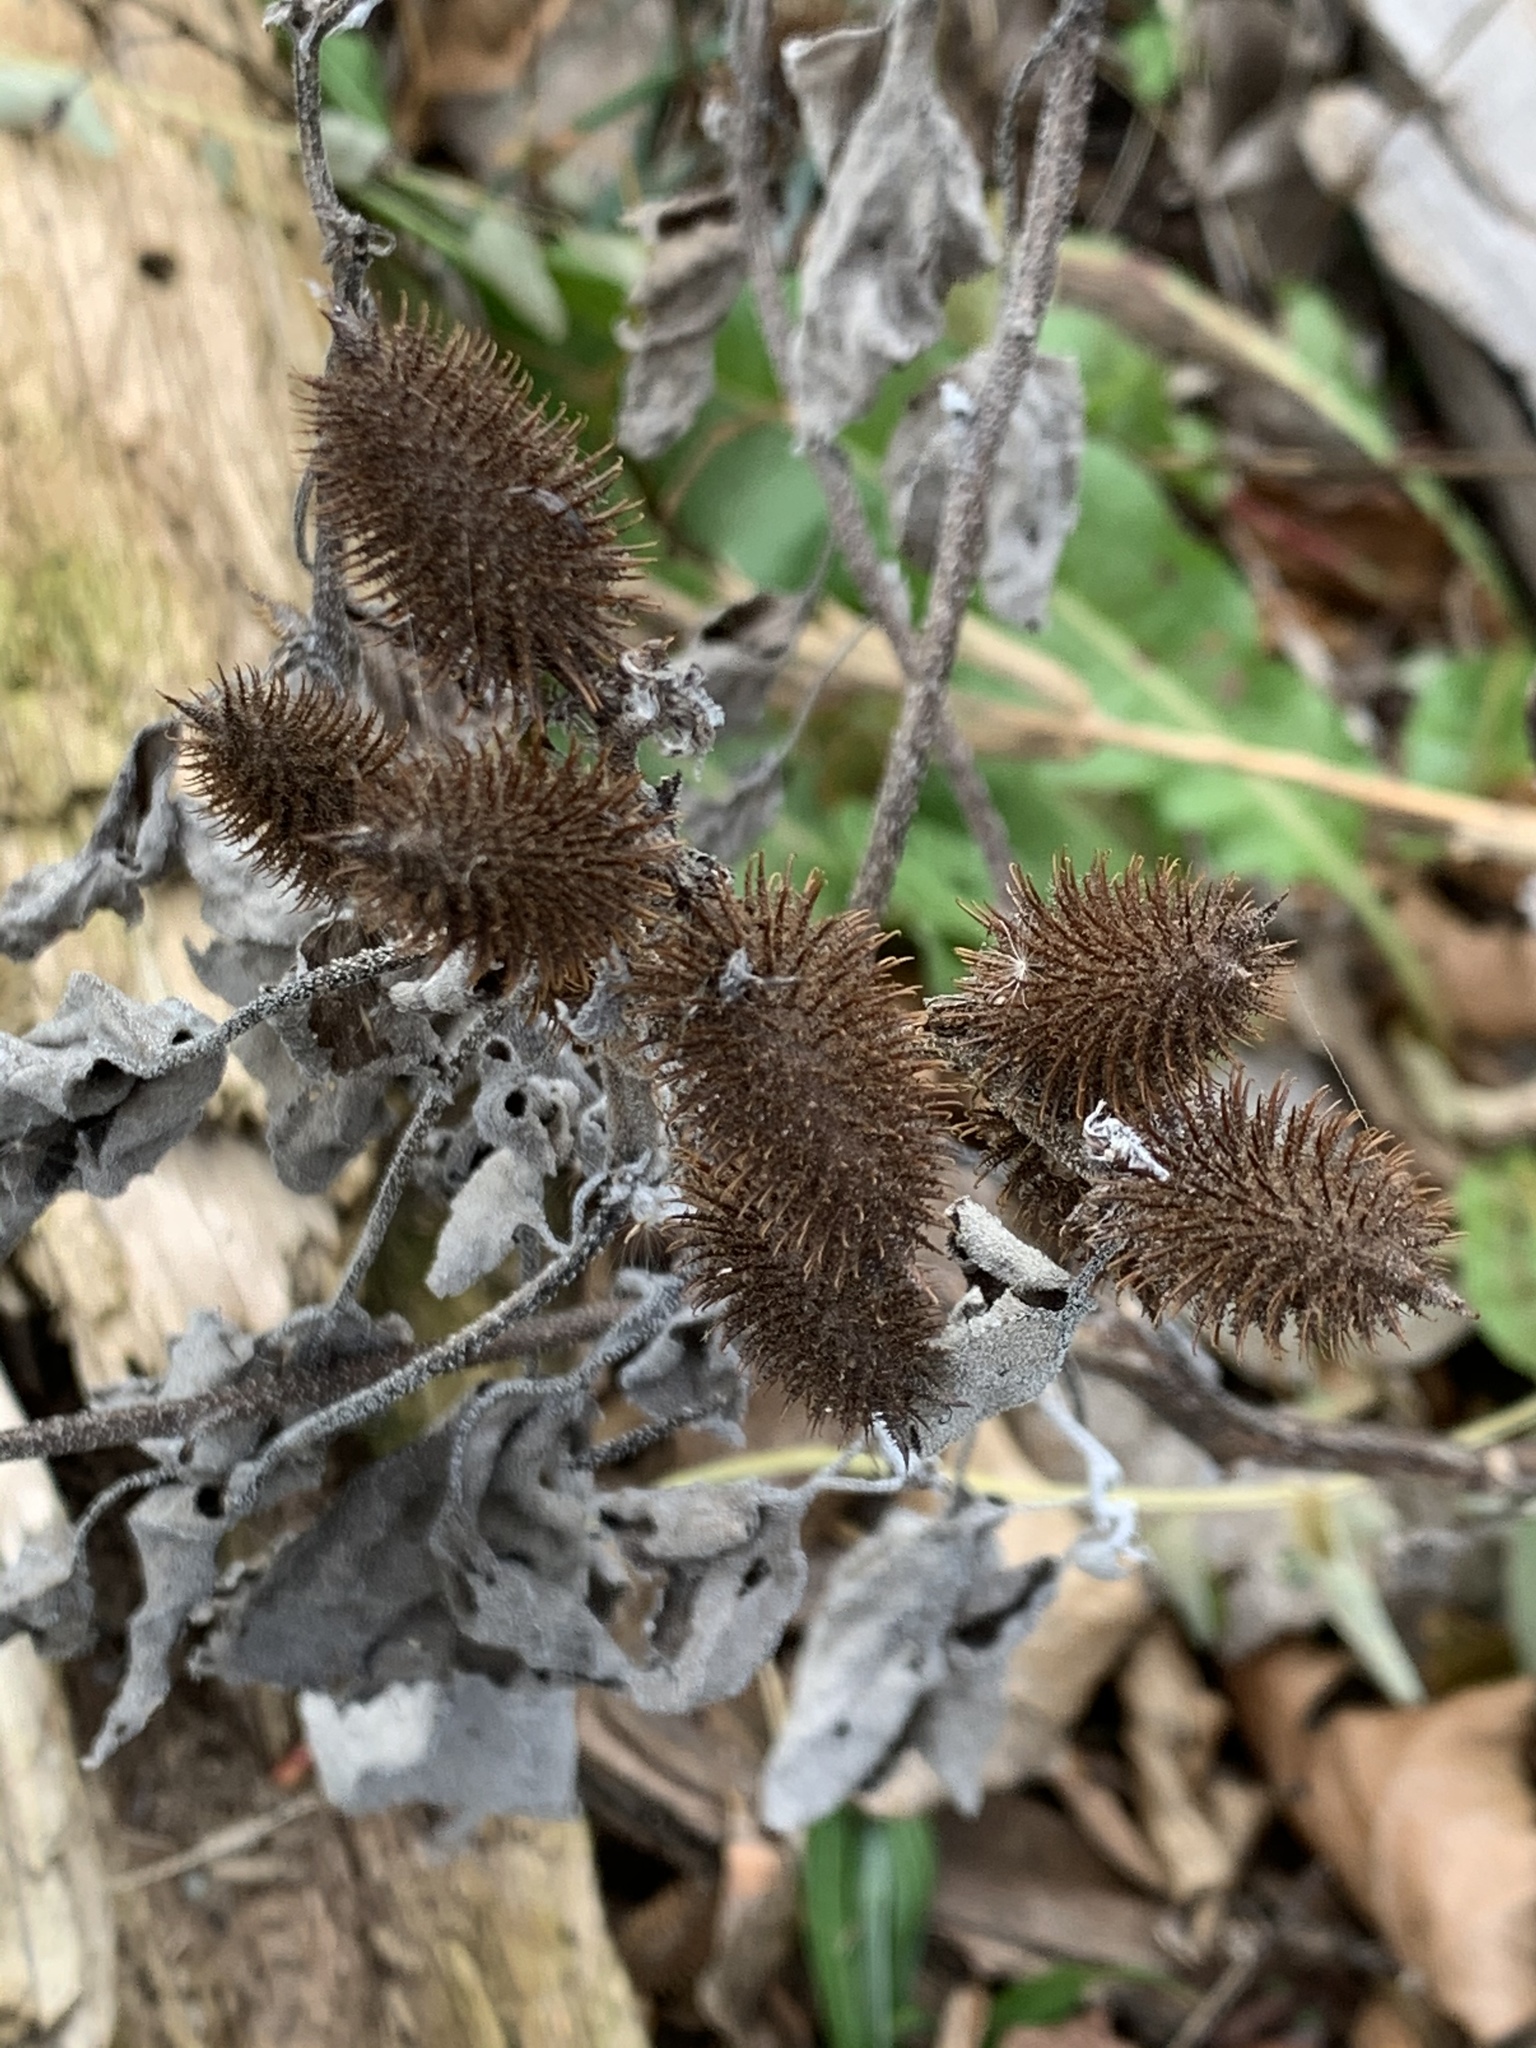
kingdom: Plantae
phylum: Tracheophyta
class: Magnoliopsida
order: Asterales
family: Asteraceae
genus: Xanthium
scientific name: Xanthium strumarium
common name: Rough cocklebur
